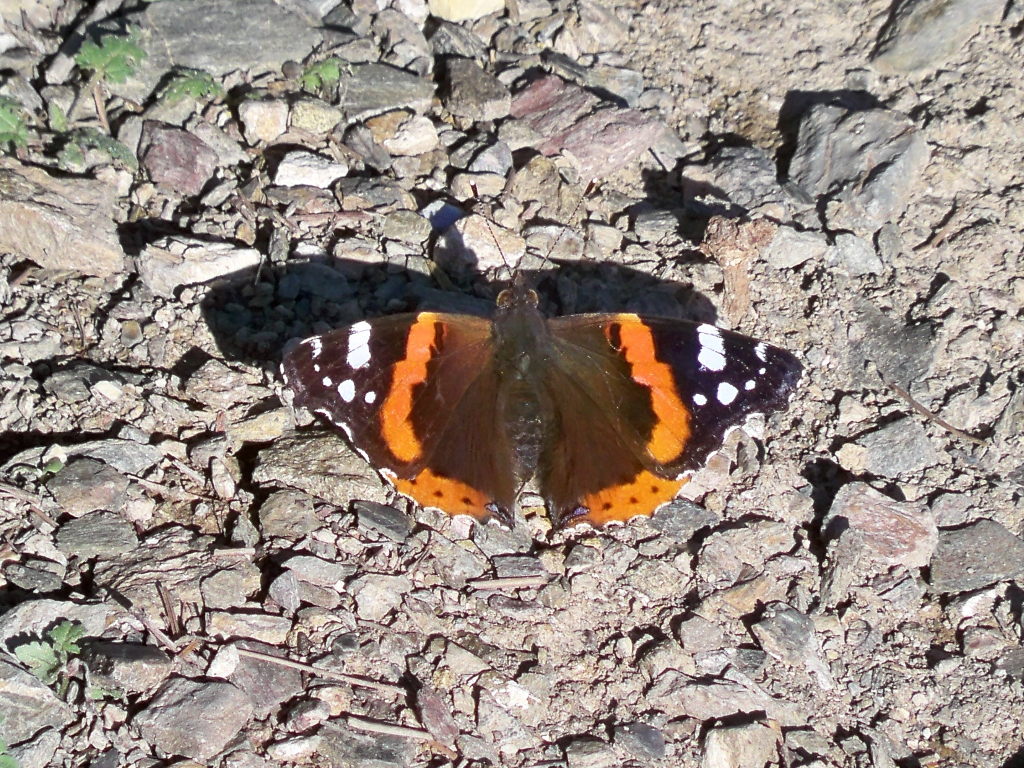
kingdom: Animalia
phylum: Arthropoda
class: Insecta
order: Lepidoptera
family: Nymphalidae
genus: Vanessa
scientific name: Vanessa atalanta
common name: Red admiral
